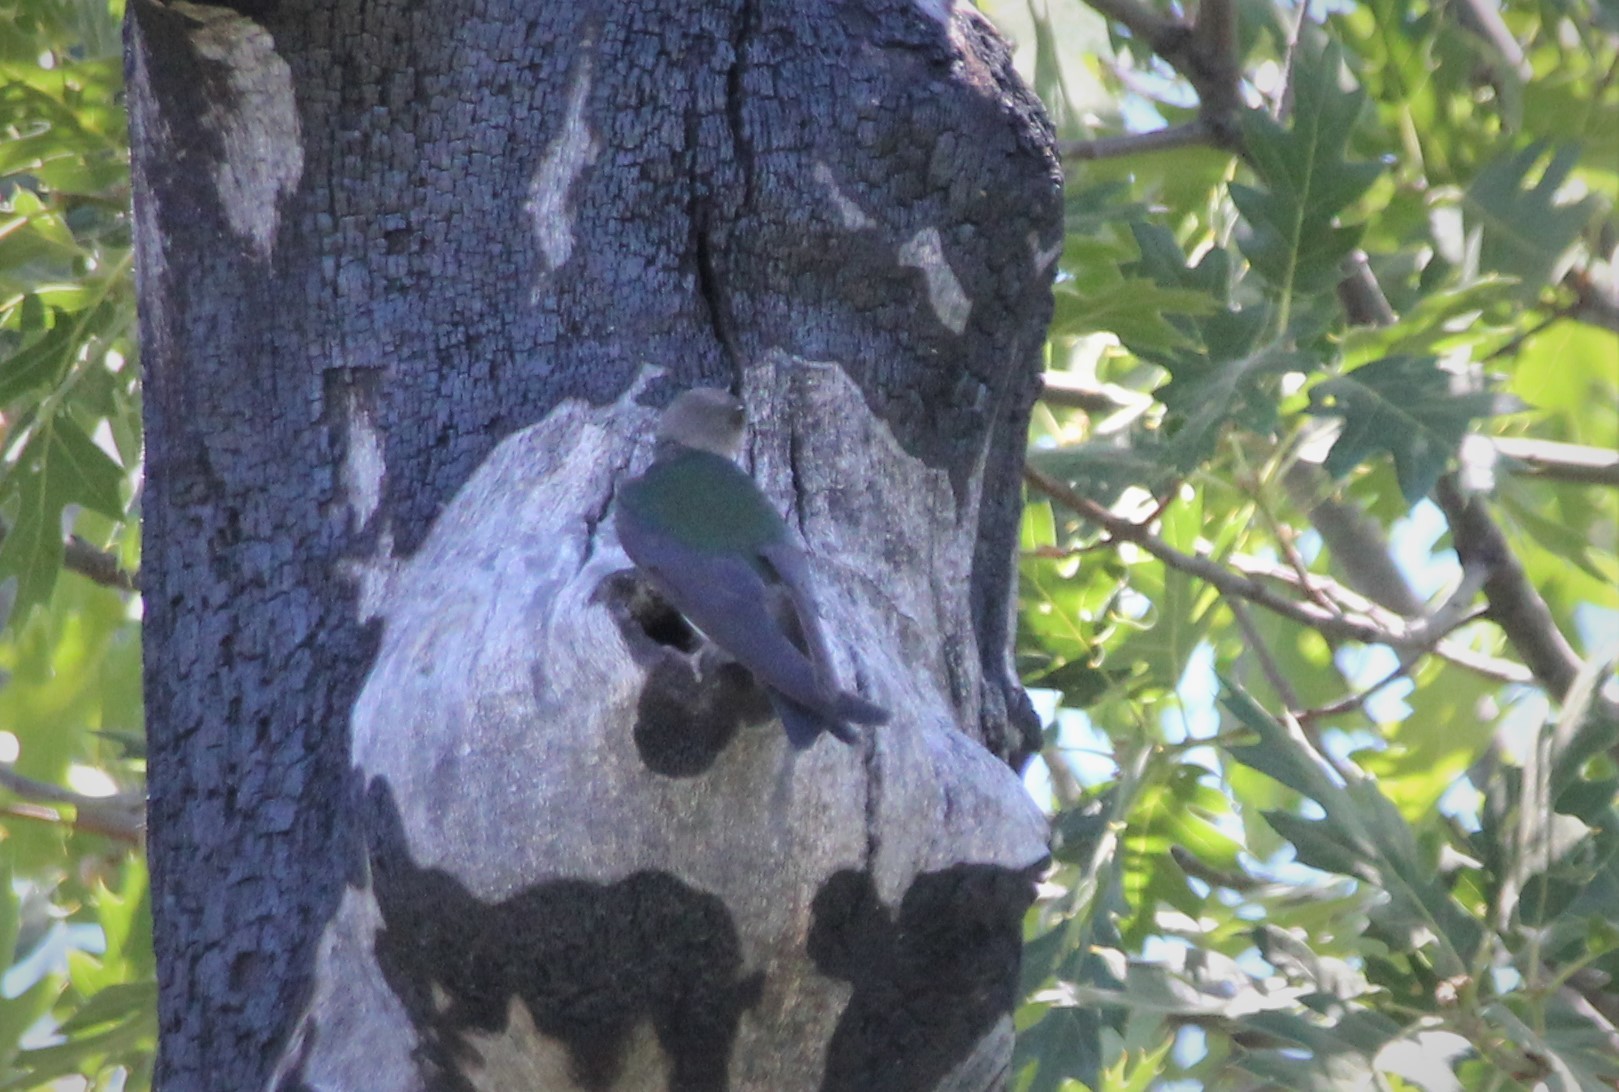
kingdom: Animalia
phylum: Chordata
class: Aves
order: Passeriformes
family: Hirundinidae
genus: Tachycineta
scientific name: Tachycineta thalassina
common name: Violet-green swallow
